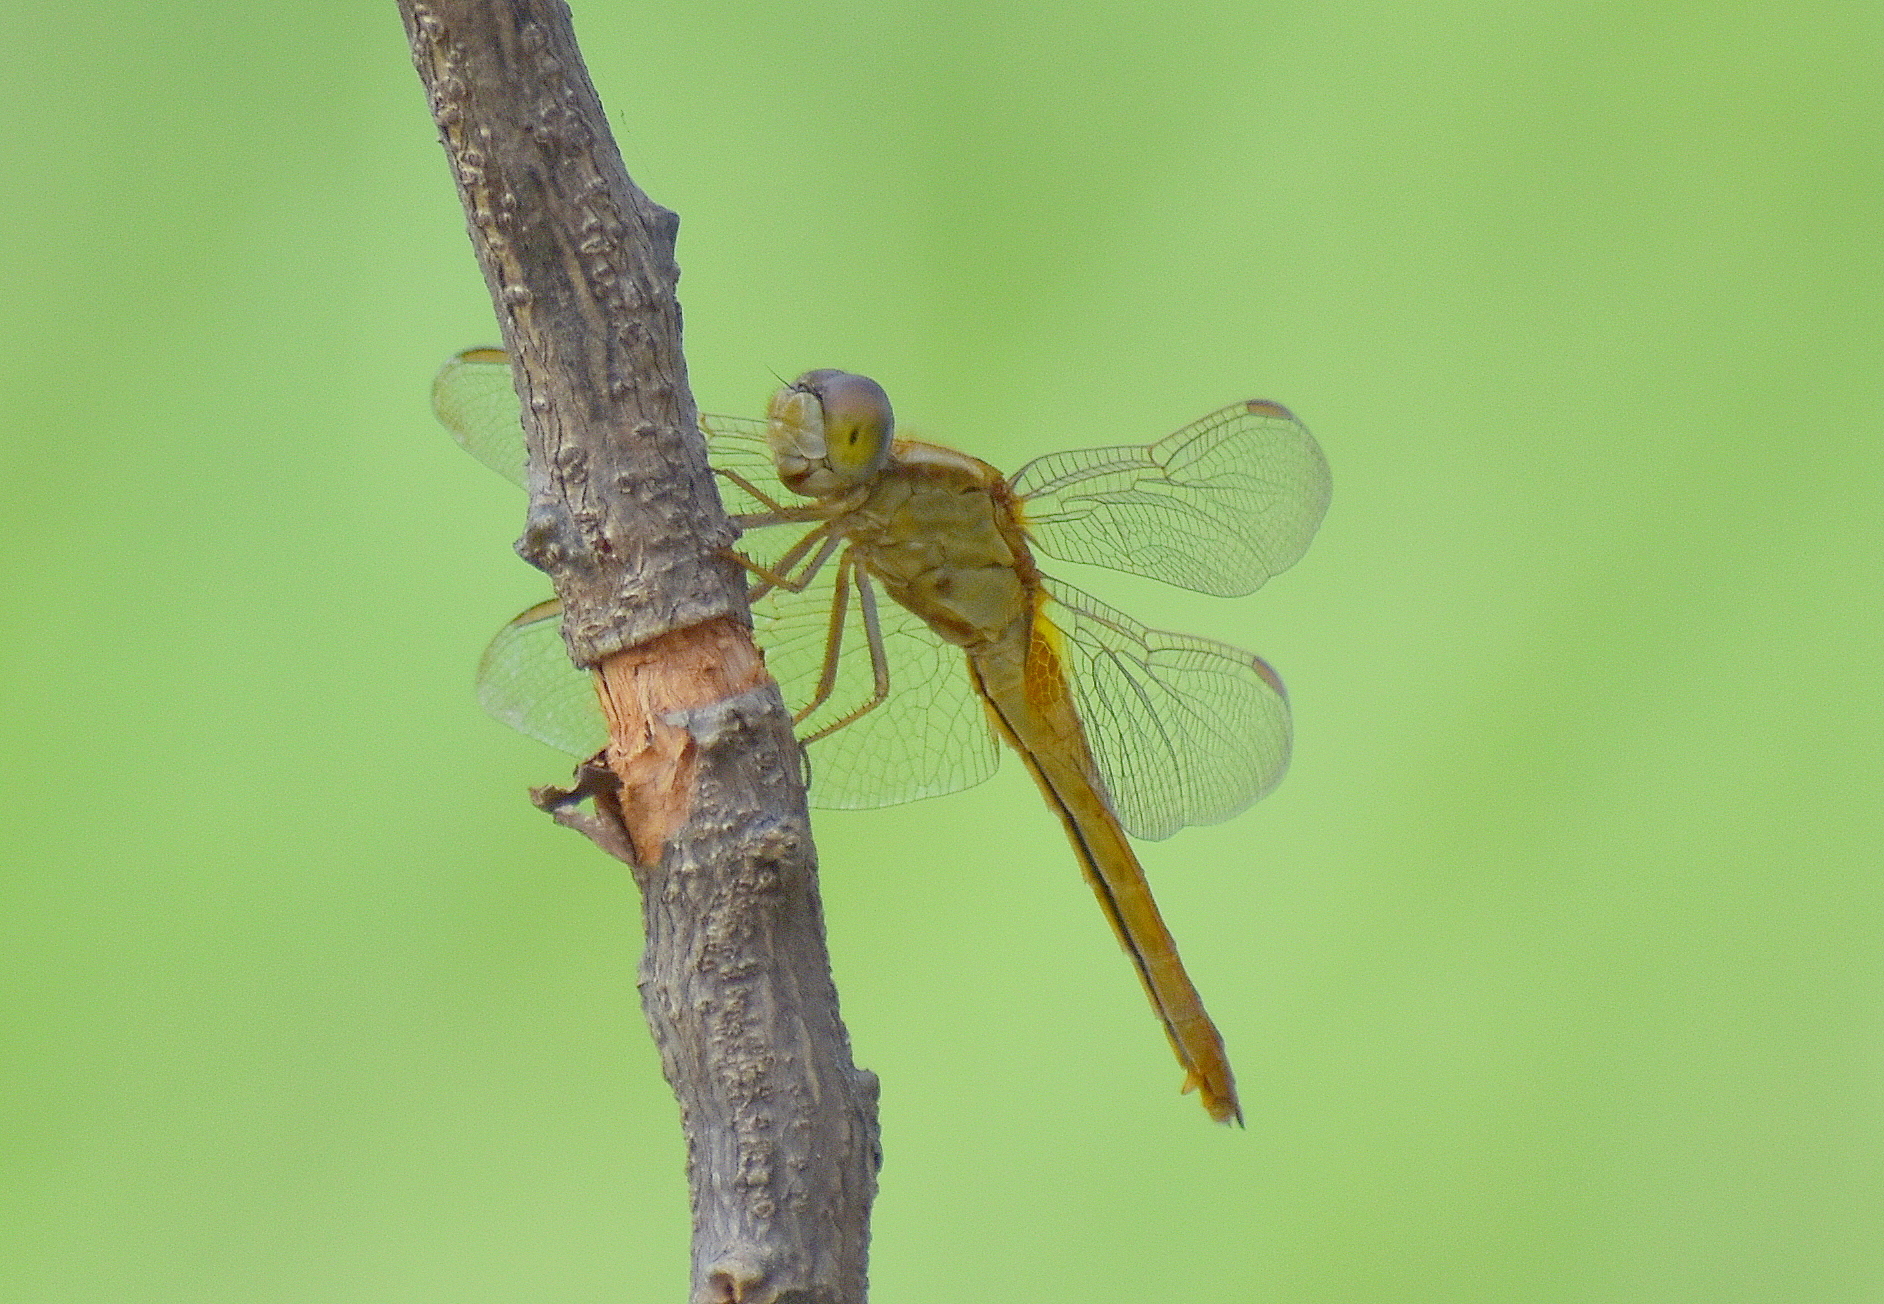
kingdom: Animalia
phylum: Arthropoda
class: Insecta
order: Odonata
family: Libellulidae
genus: Crocothemis
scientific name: Crocothemis servilia
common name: Scarlet skimmer
